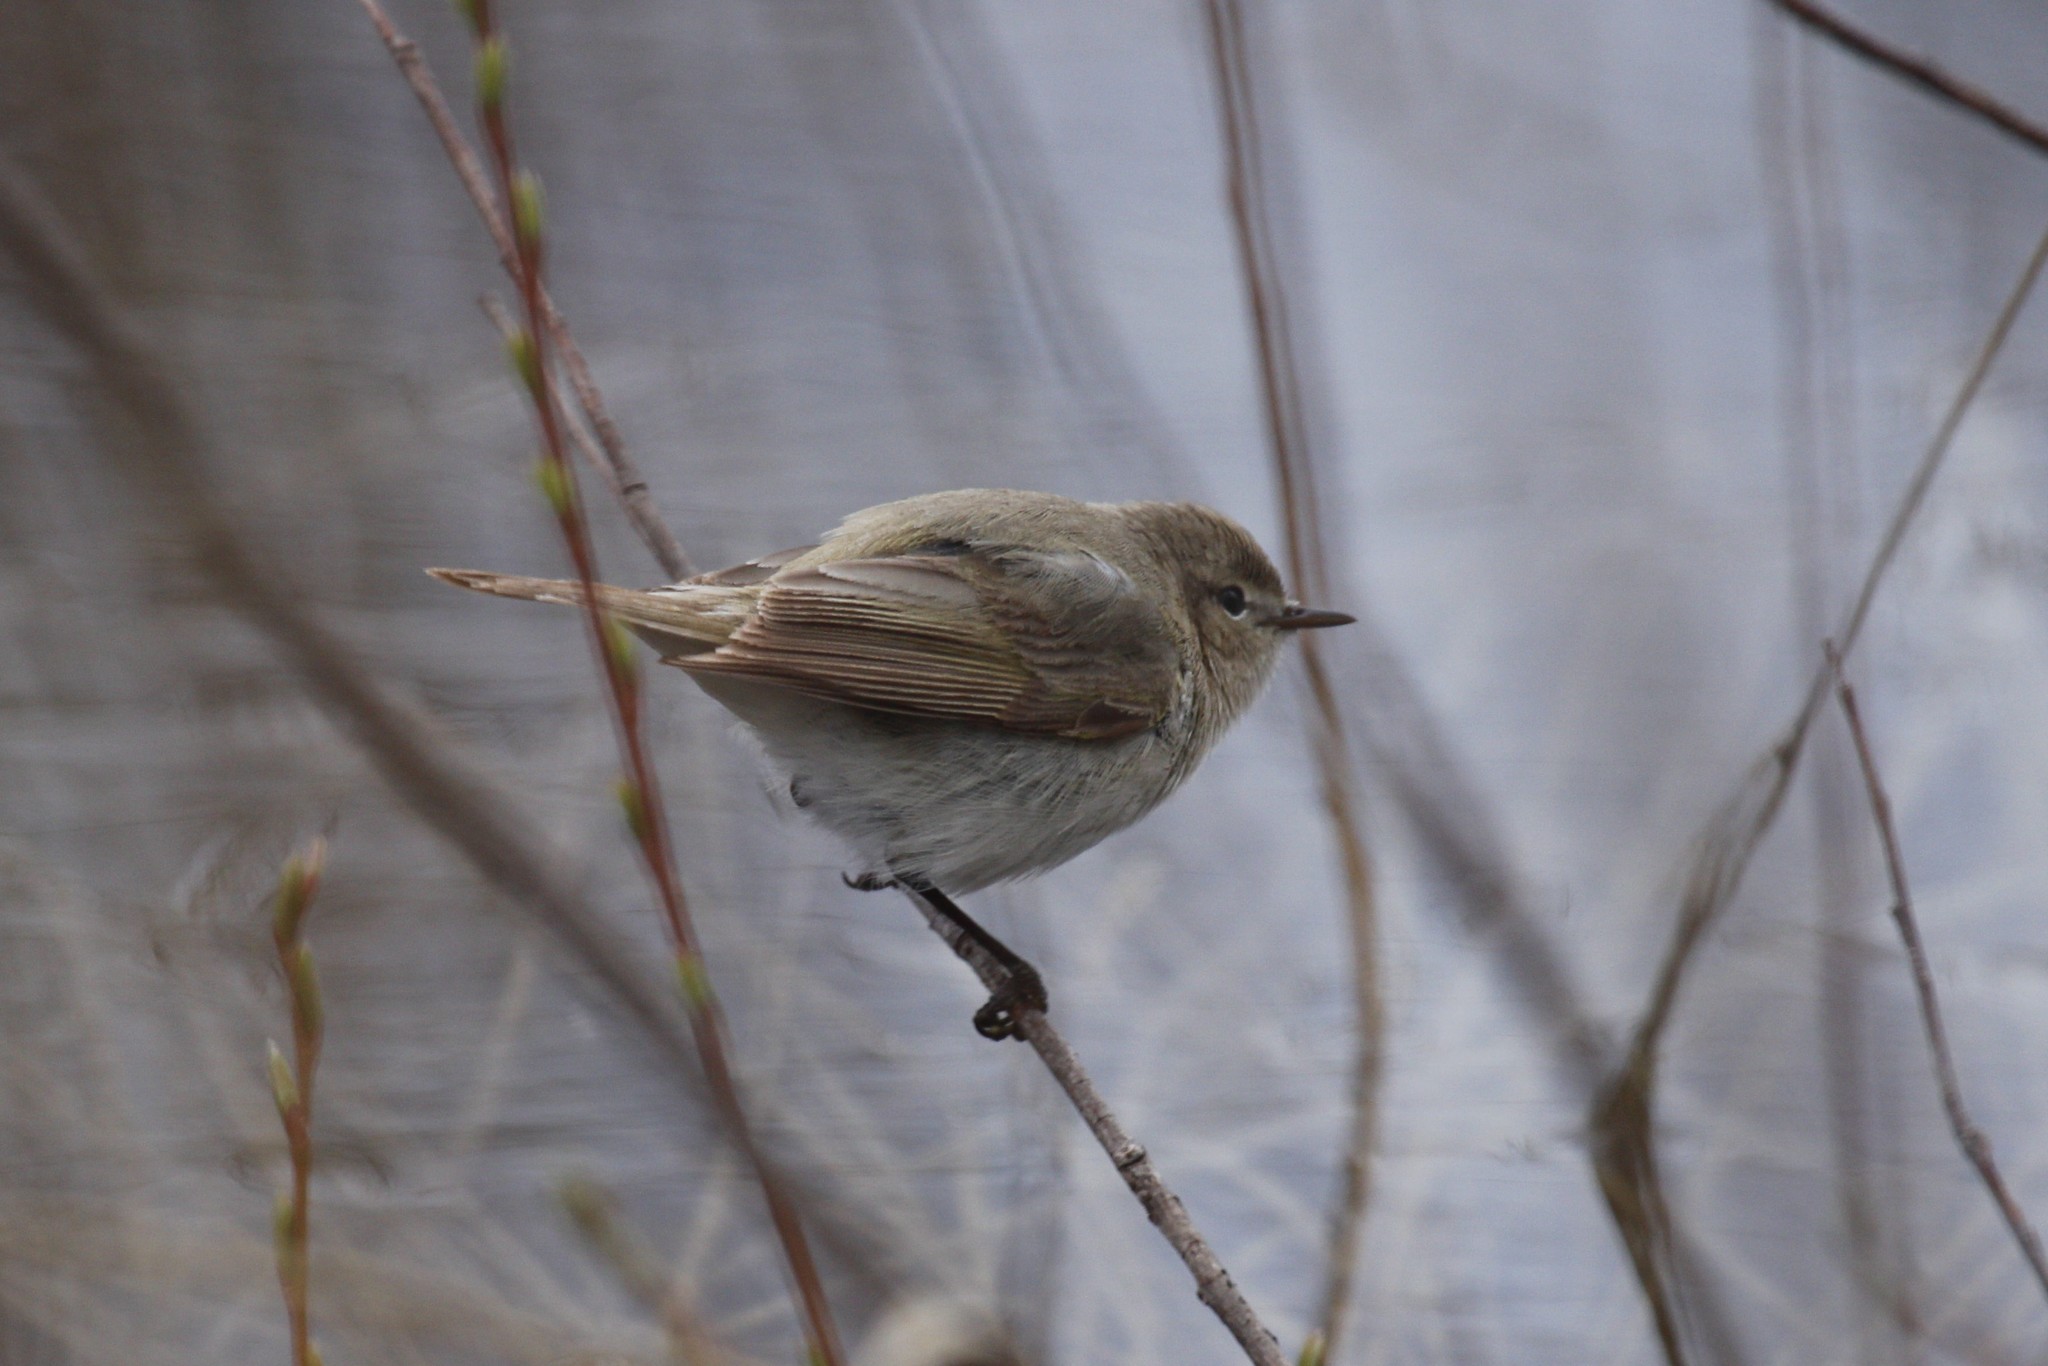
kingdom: Animalia
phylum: Chordata
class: Aves
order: Passeriformes
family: Phylloscopidae
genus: Phylloscopus
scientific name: Phylloscopus collybita
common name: Common chiffchaff
